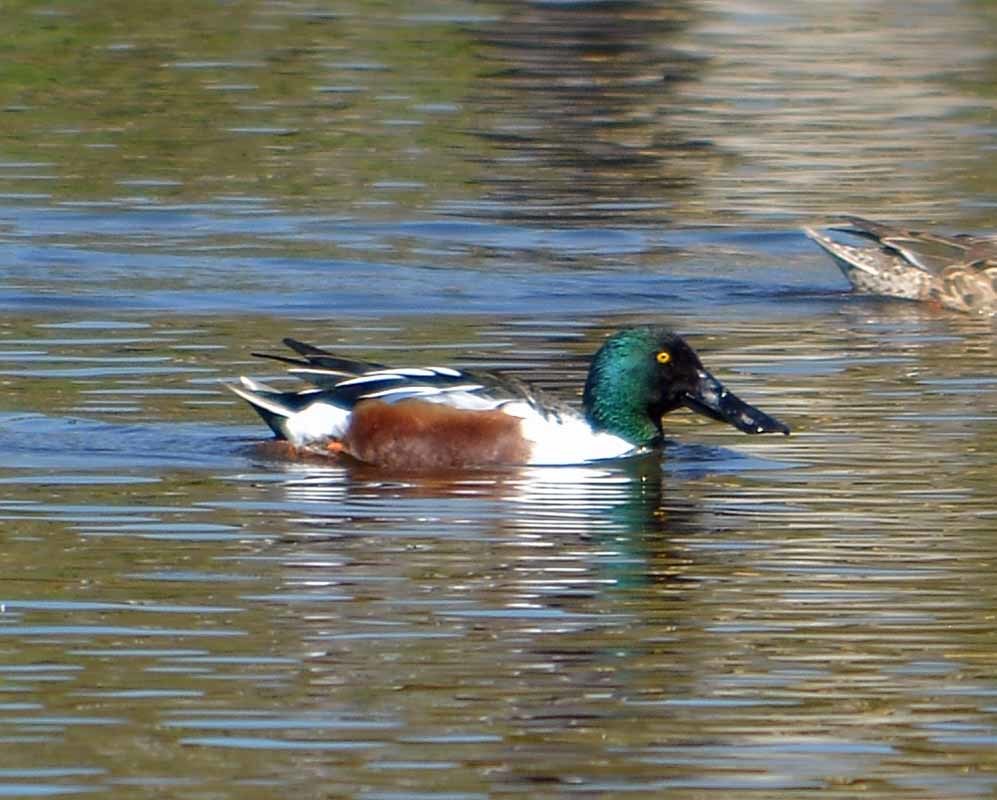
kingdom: Animalia
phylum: Chordata
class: Aves
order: Anseriformes
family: Anatidae
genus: Spatula
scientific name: Spatula clypeata
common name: Northern shoveler
